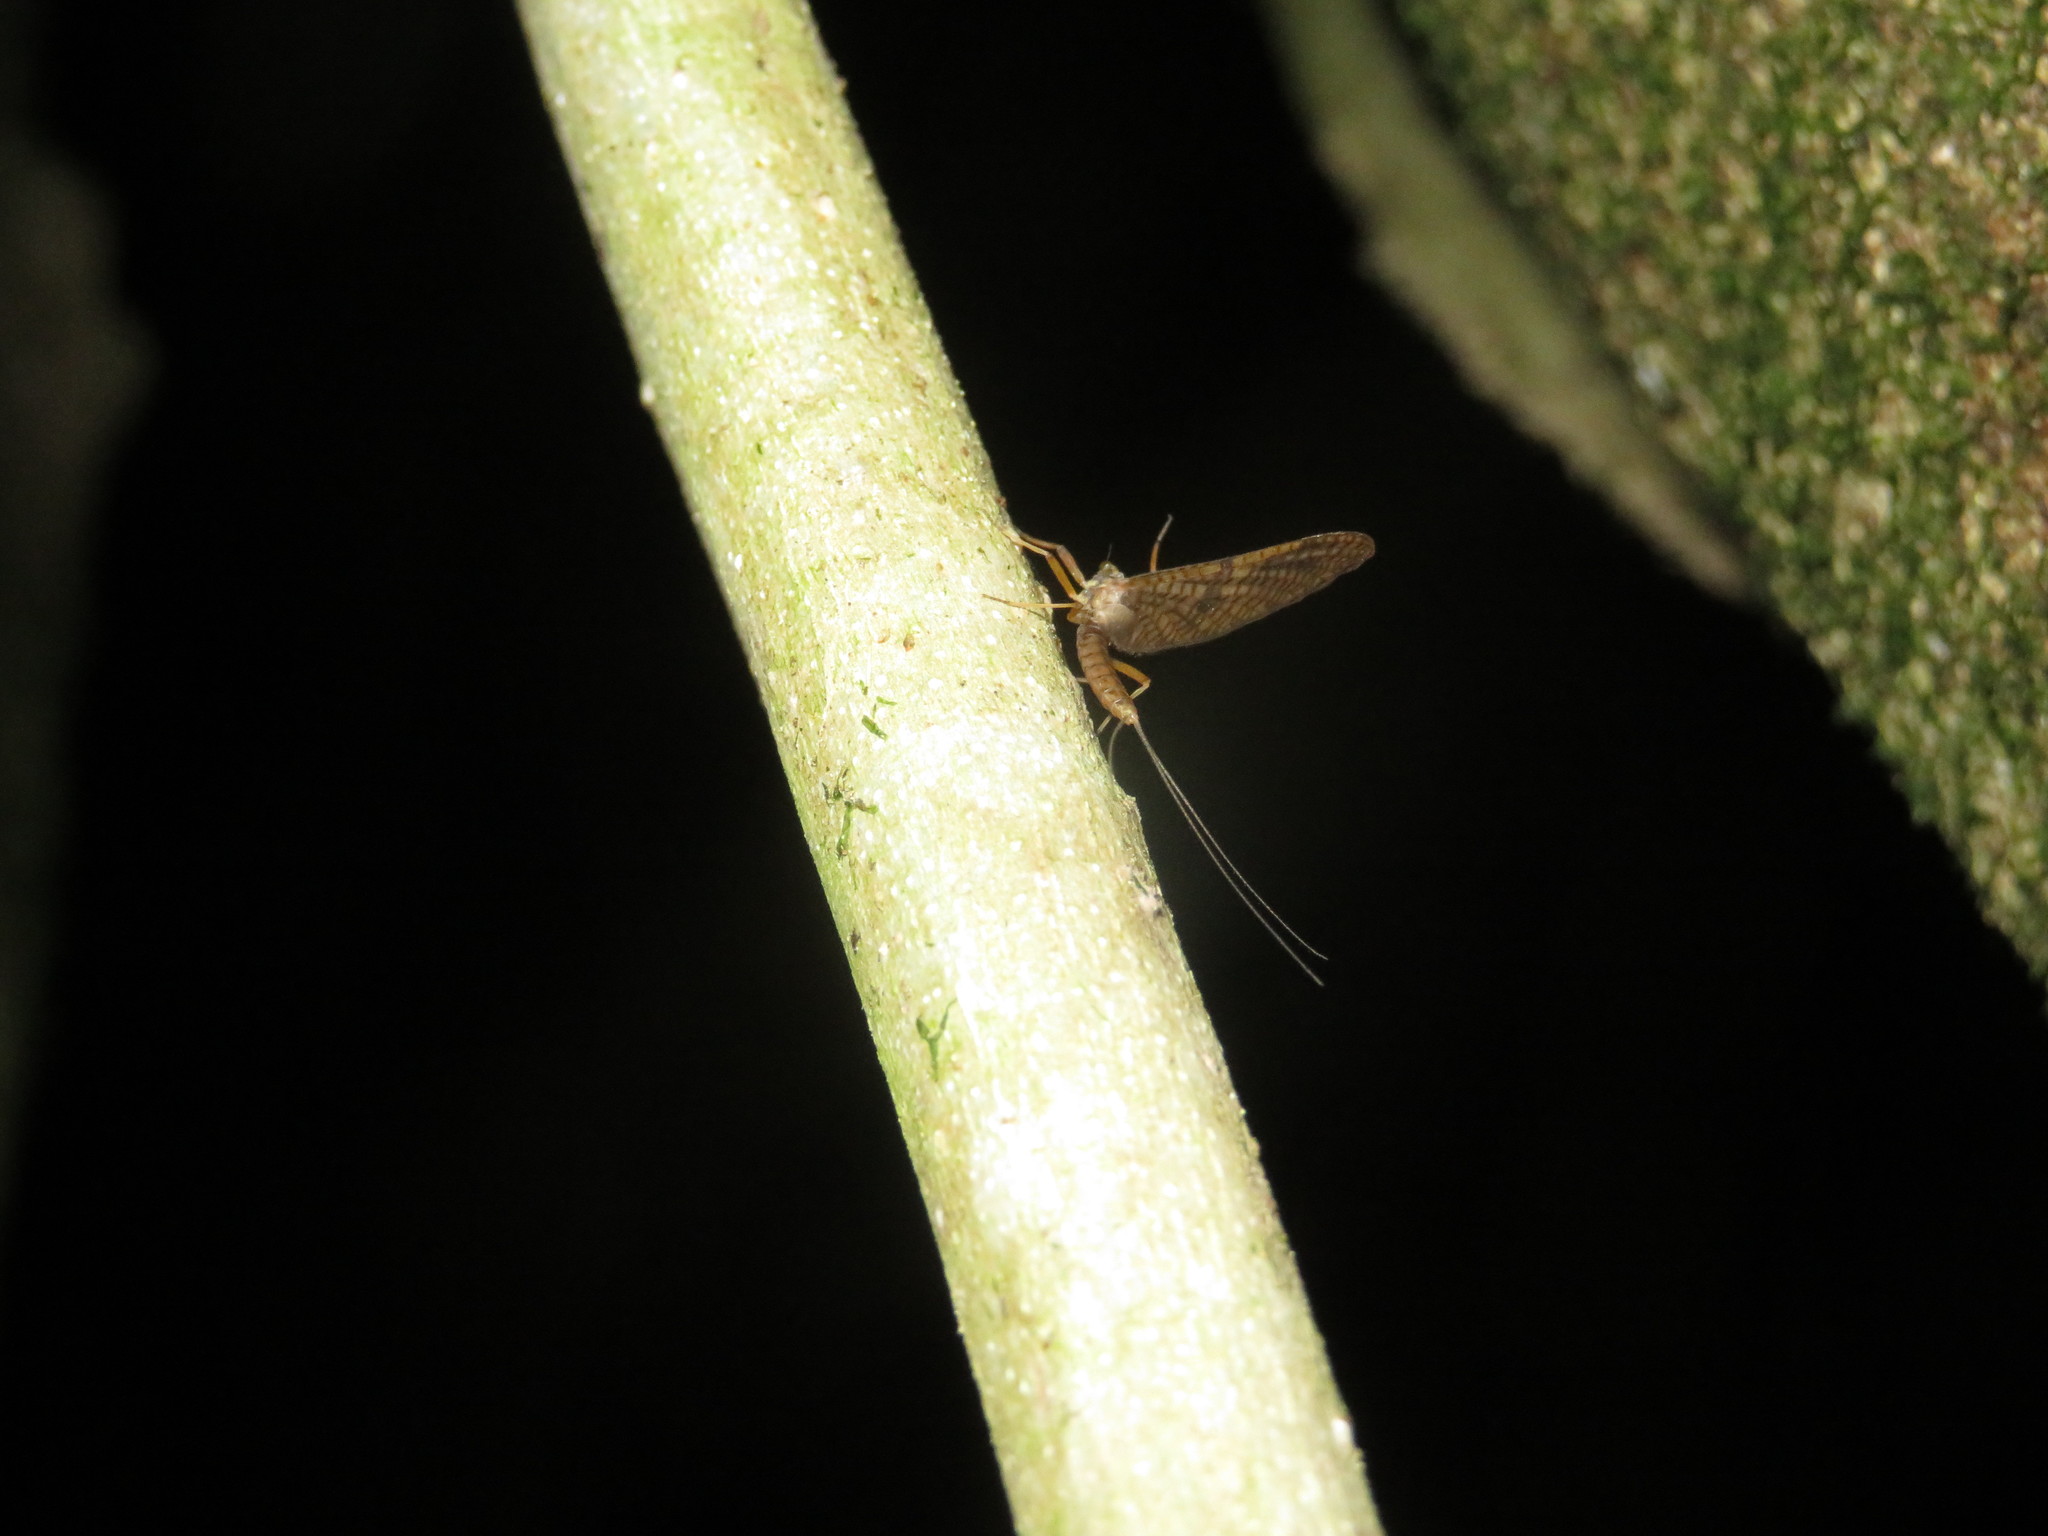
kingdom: Animalia
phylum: Arthropoda
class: Insecta
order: Ephemeroptera
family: Leptophlebiidae
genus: Zephlebia
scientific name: Zephlebia versicolor
